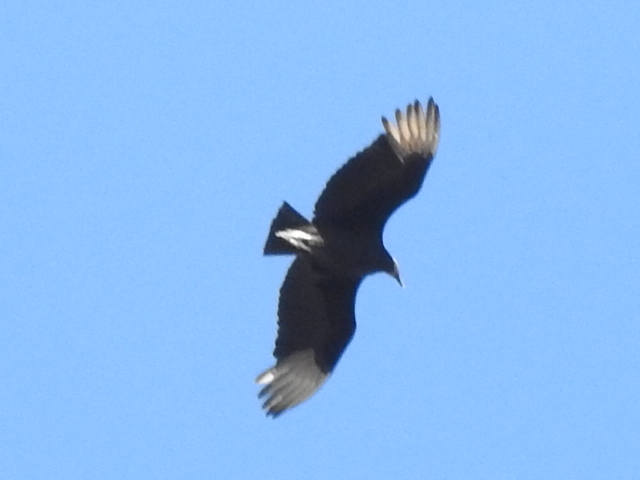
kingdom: Animalia
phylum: Chordata
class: Aves
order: Accipitriformes
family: Cathartidae
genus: Coragyps
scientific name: Coragyps atratus
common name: Black vulture
